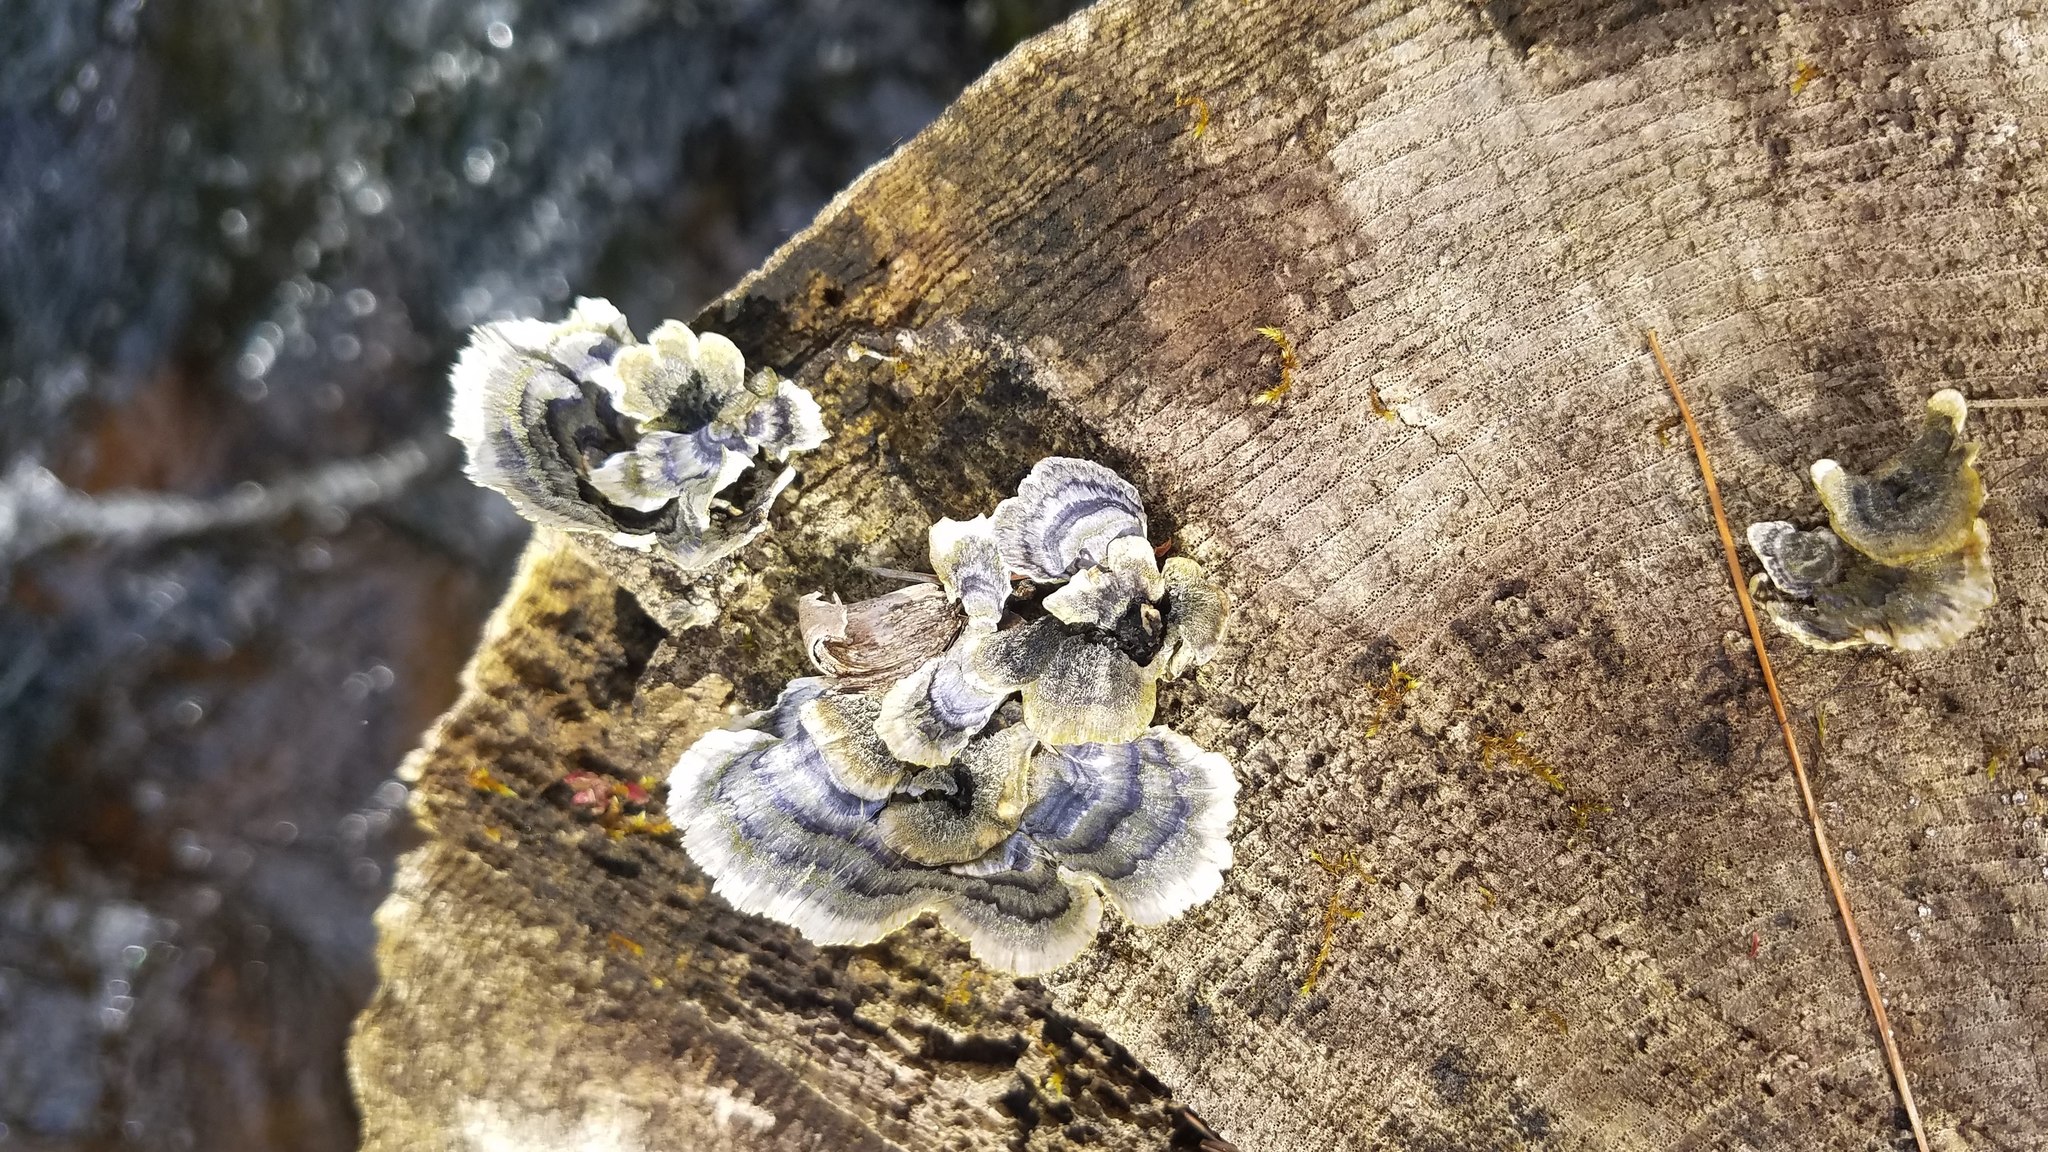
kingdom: Fungi
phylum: Basidiomycota
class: Agaricomycetes
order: Polyporales
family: Polyporaceae
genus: Trametes
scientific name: Trametes versicolor
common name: Turkeytail
